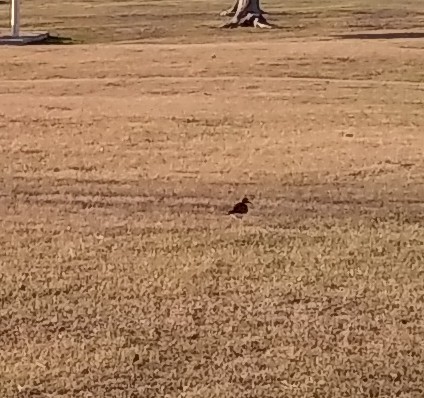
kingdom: Animalia
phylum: Chordata
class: Aves
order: Charadriiformes
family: Charadriidae
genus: Charadrius
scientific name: Charadrius vociferus
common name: Killdeer
